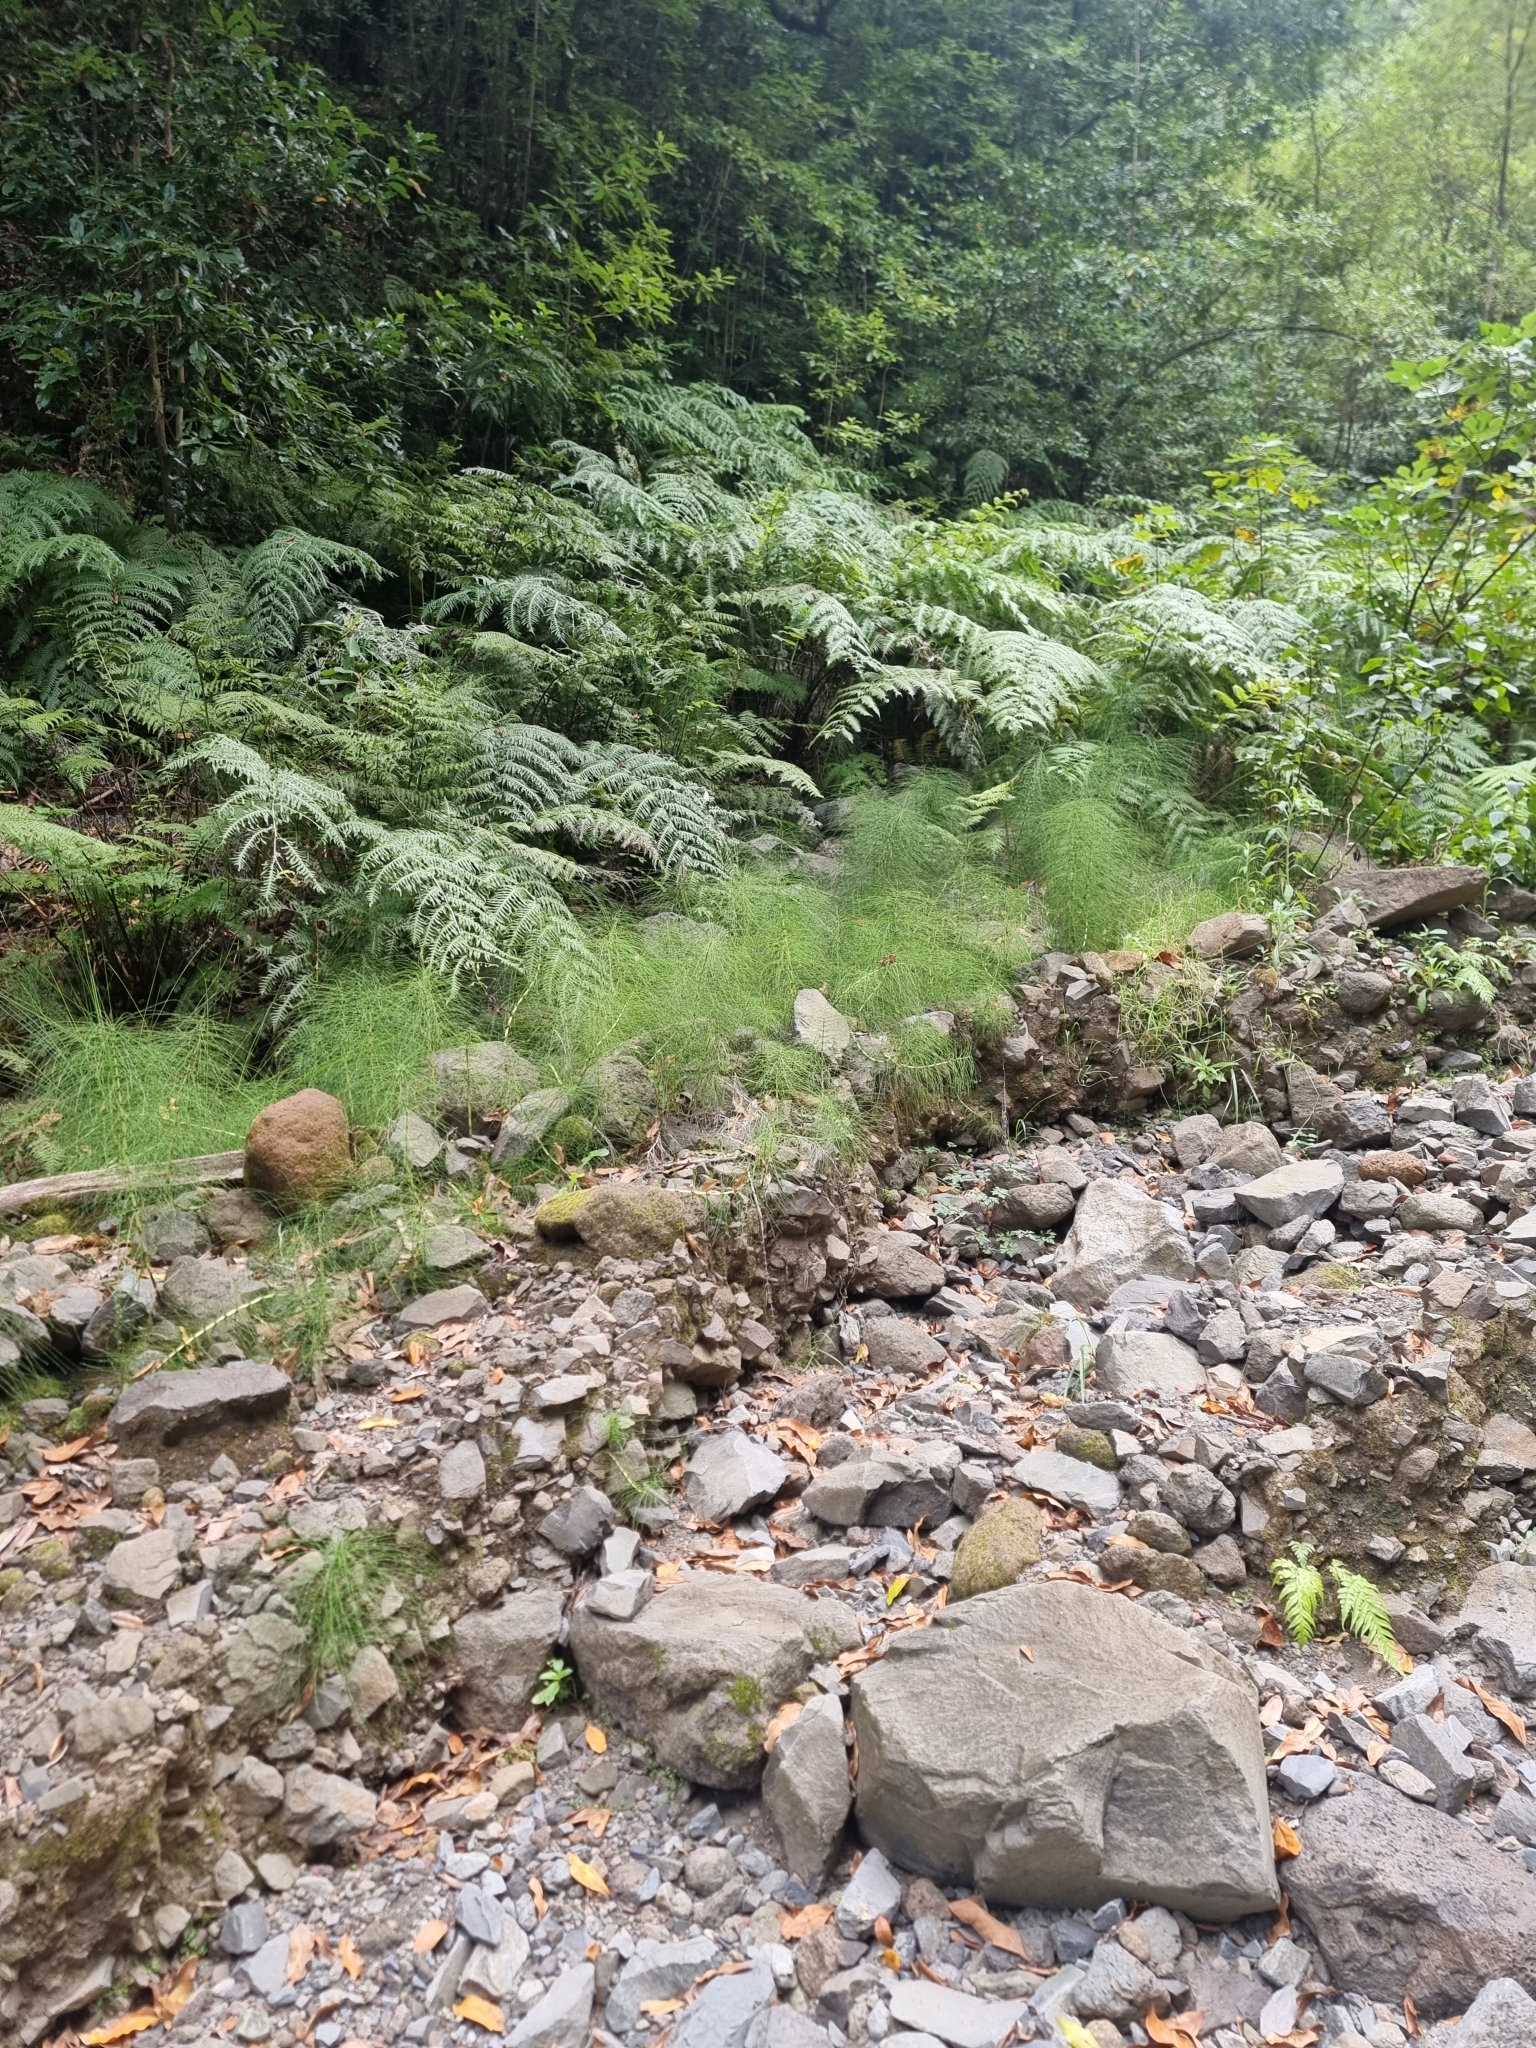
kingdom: Plantae
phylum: Tracheophyta
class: Polypodiopsida
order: Equisetales
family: Equisetaceae
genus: Equisetum
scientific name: Equisetum telmateia
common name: Great horsetail
